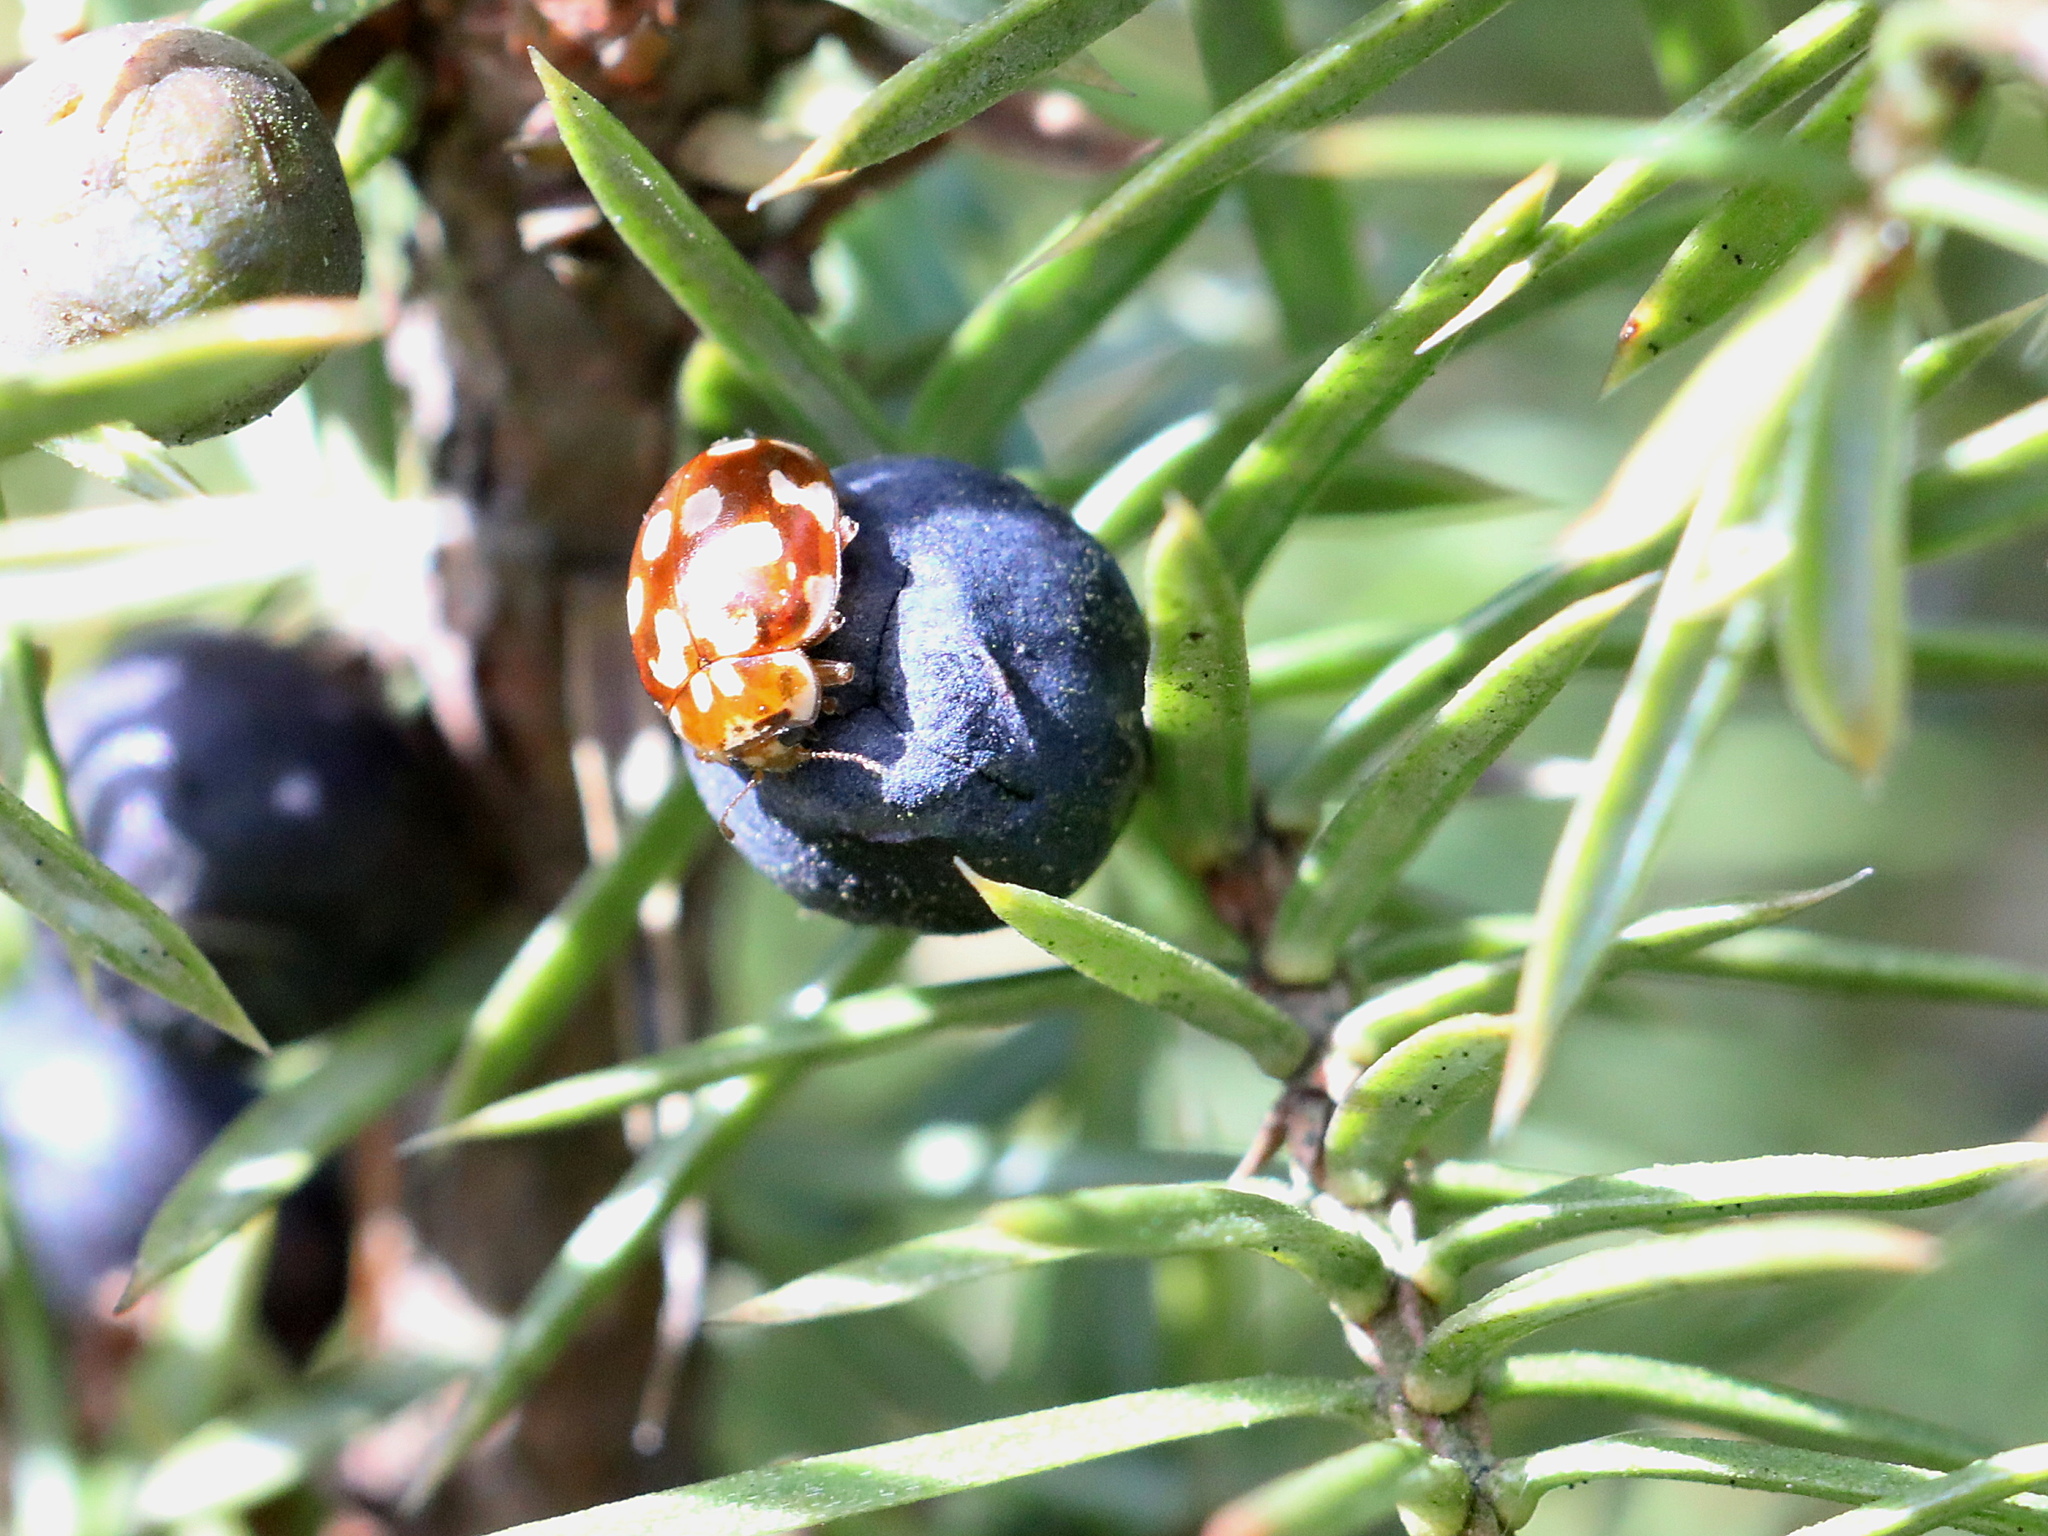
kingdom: Animalia
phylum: Arthropoda
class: Insecta
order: Coleoptera
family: Coccinellidae
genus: Myrrha
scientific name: Myrrha octodecimguttata
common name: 18-spot ladybird
